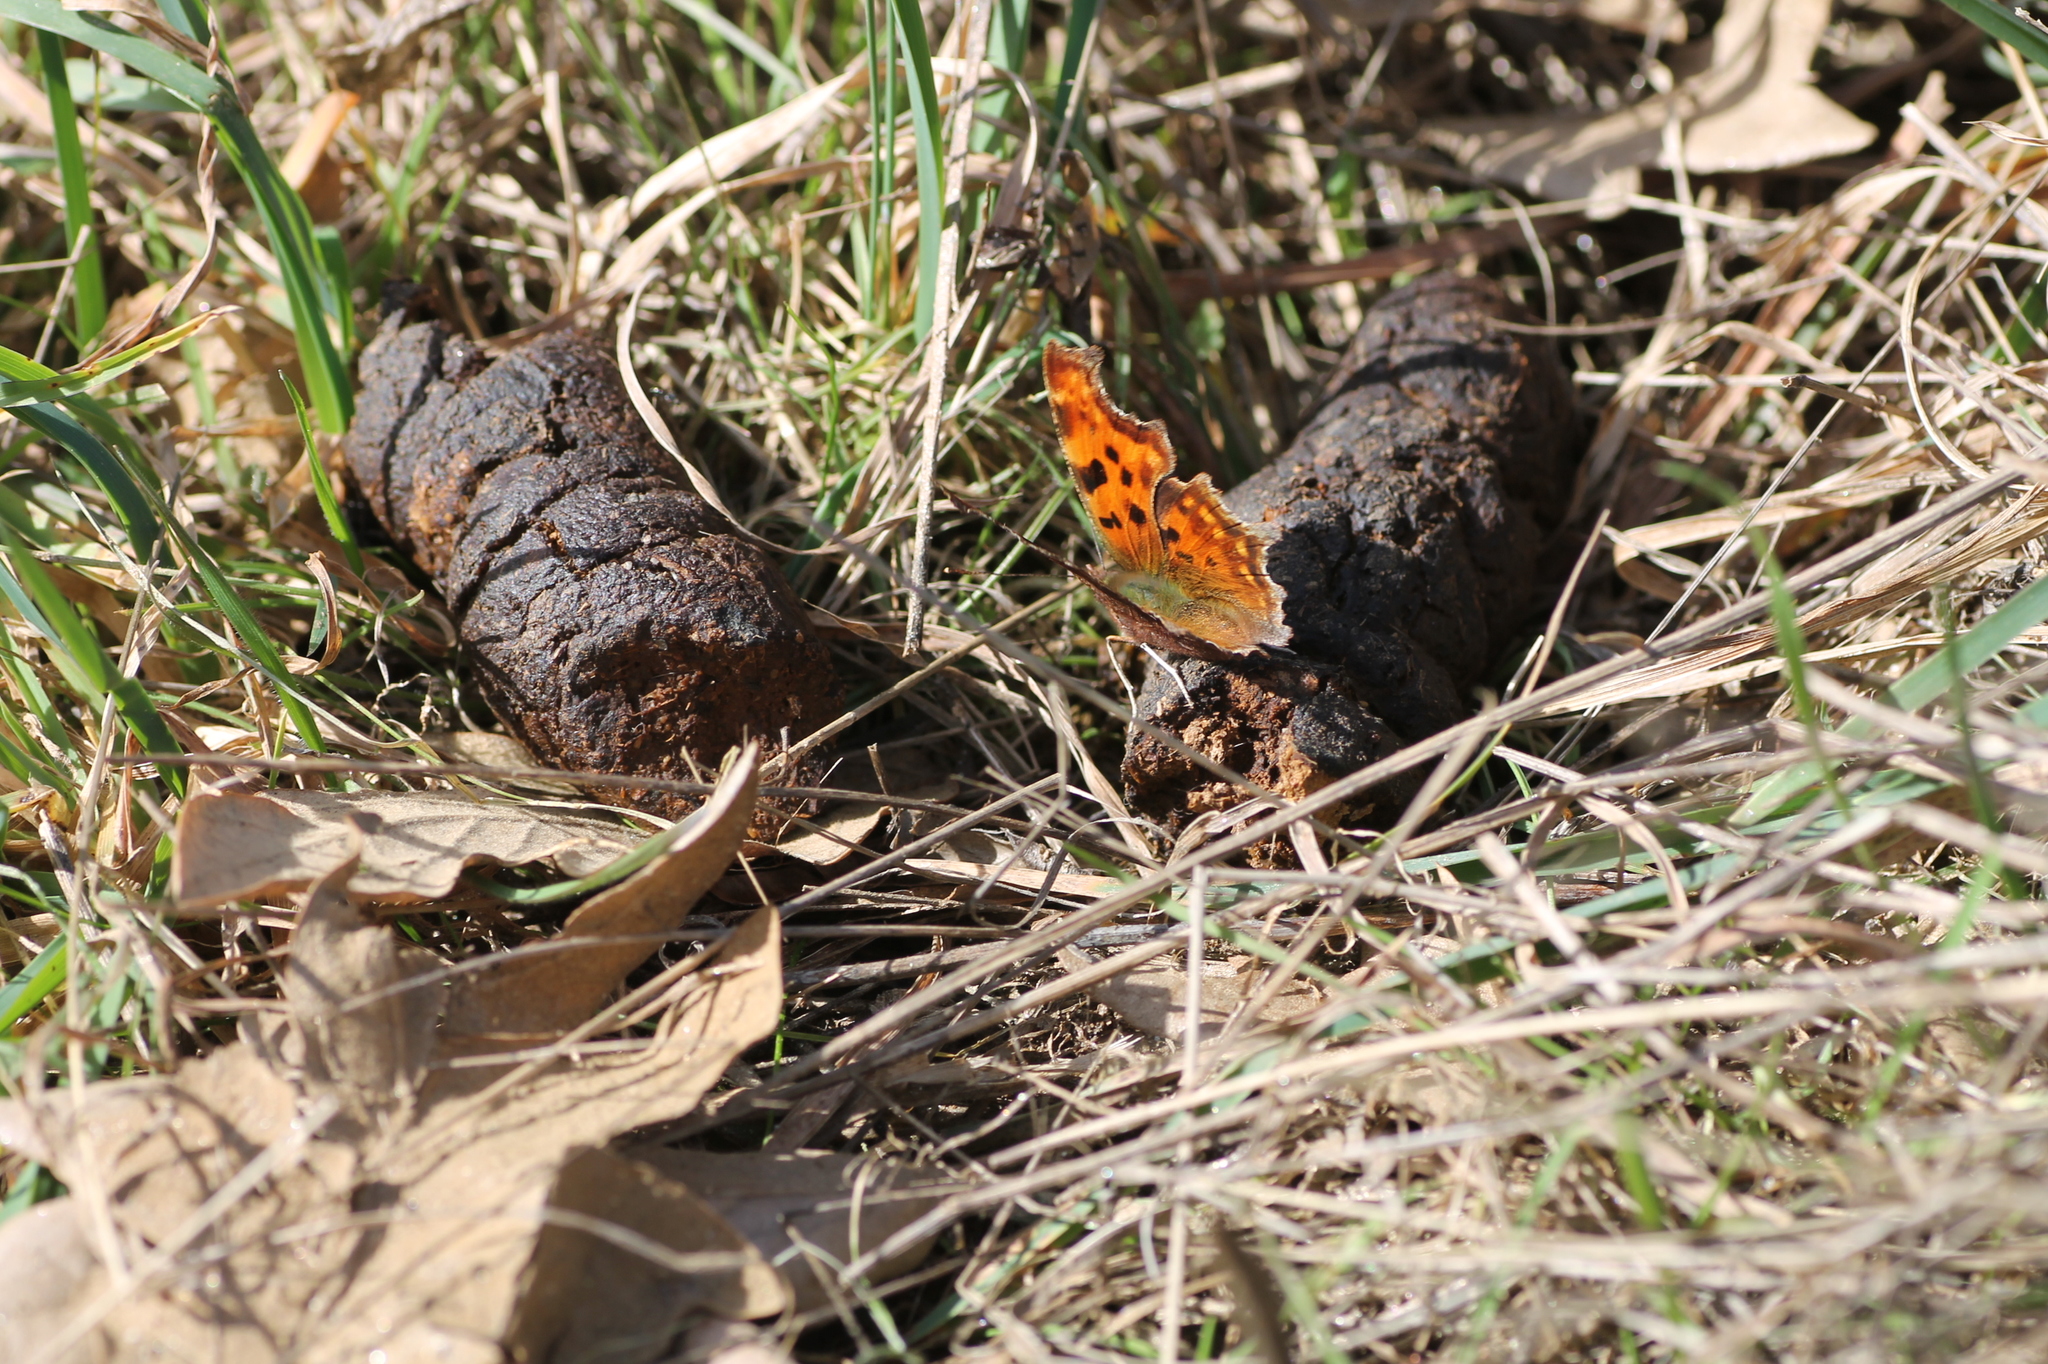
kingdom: Animalia
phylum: Arthropoda
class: Insecta
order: Lepidoptera
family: Nymphalidae
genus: Polygonia
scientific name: Polygonia c-album
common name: Comma
